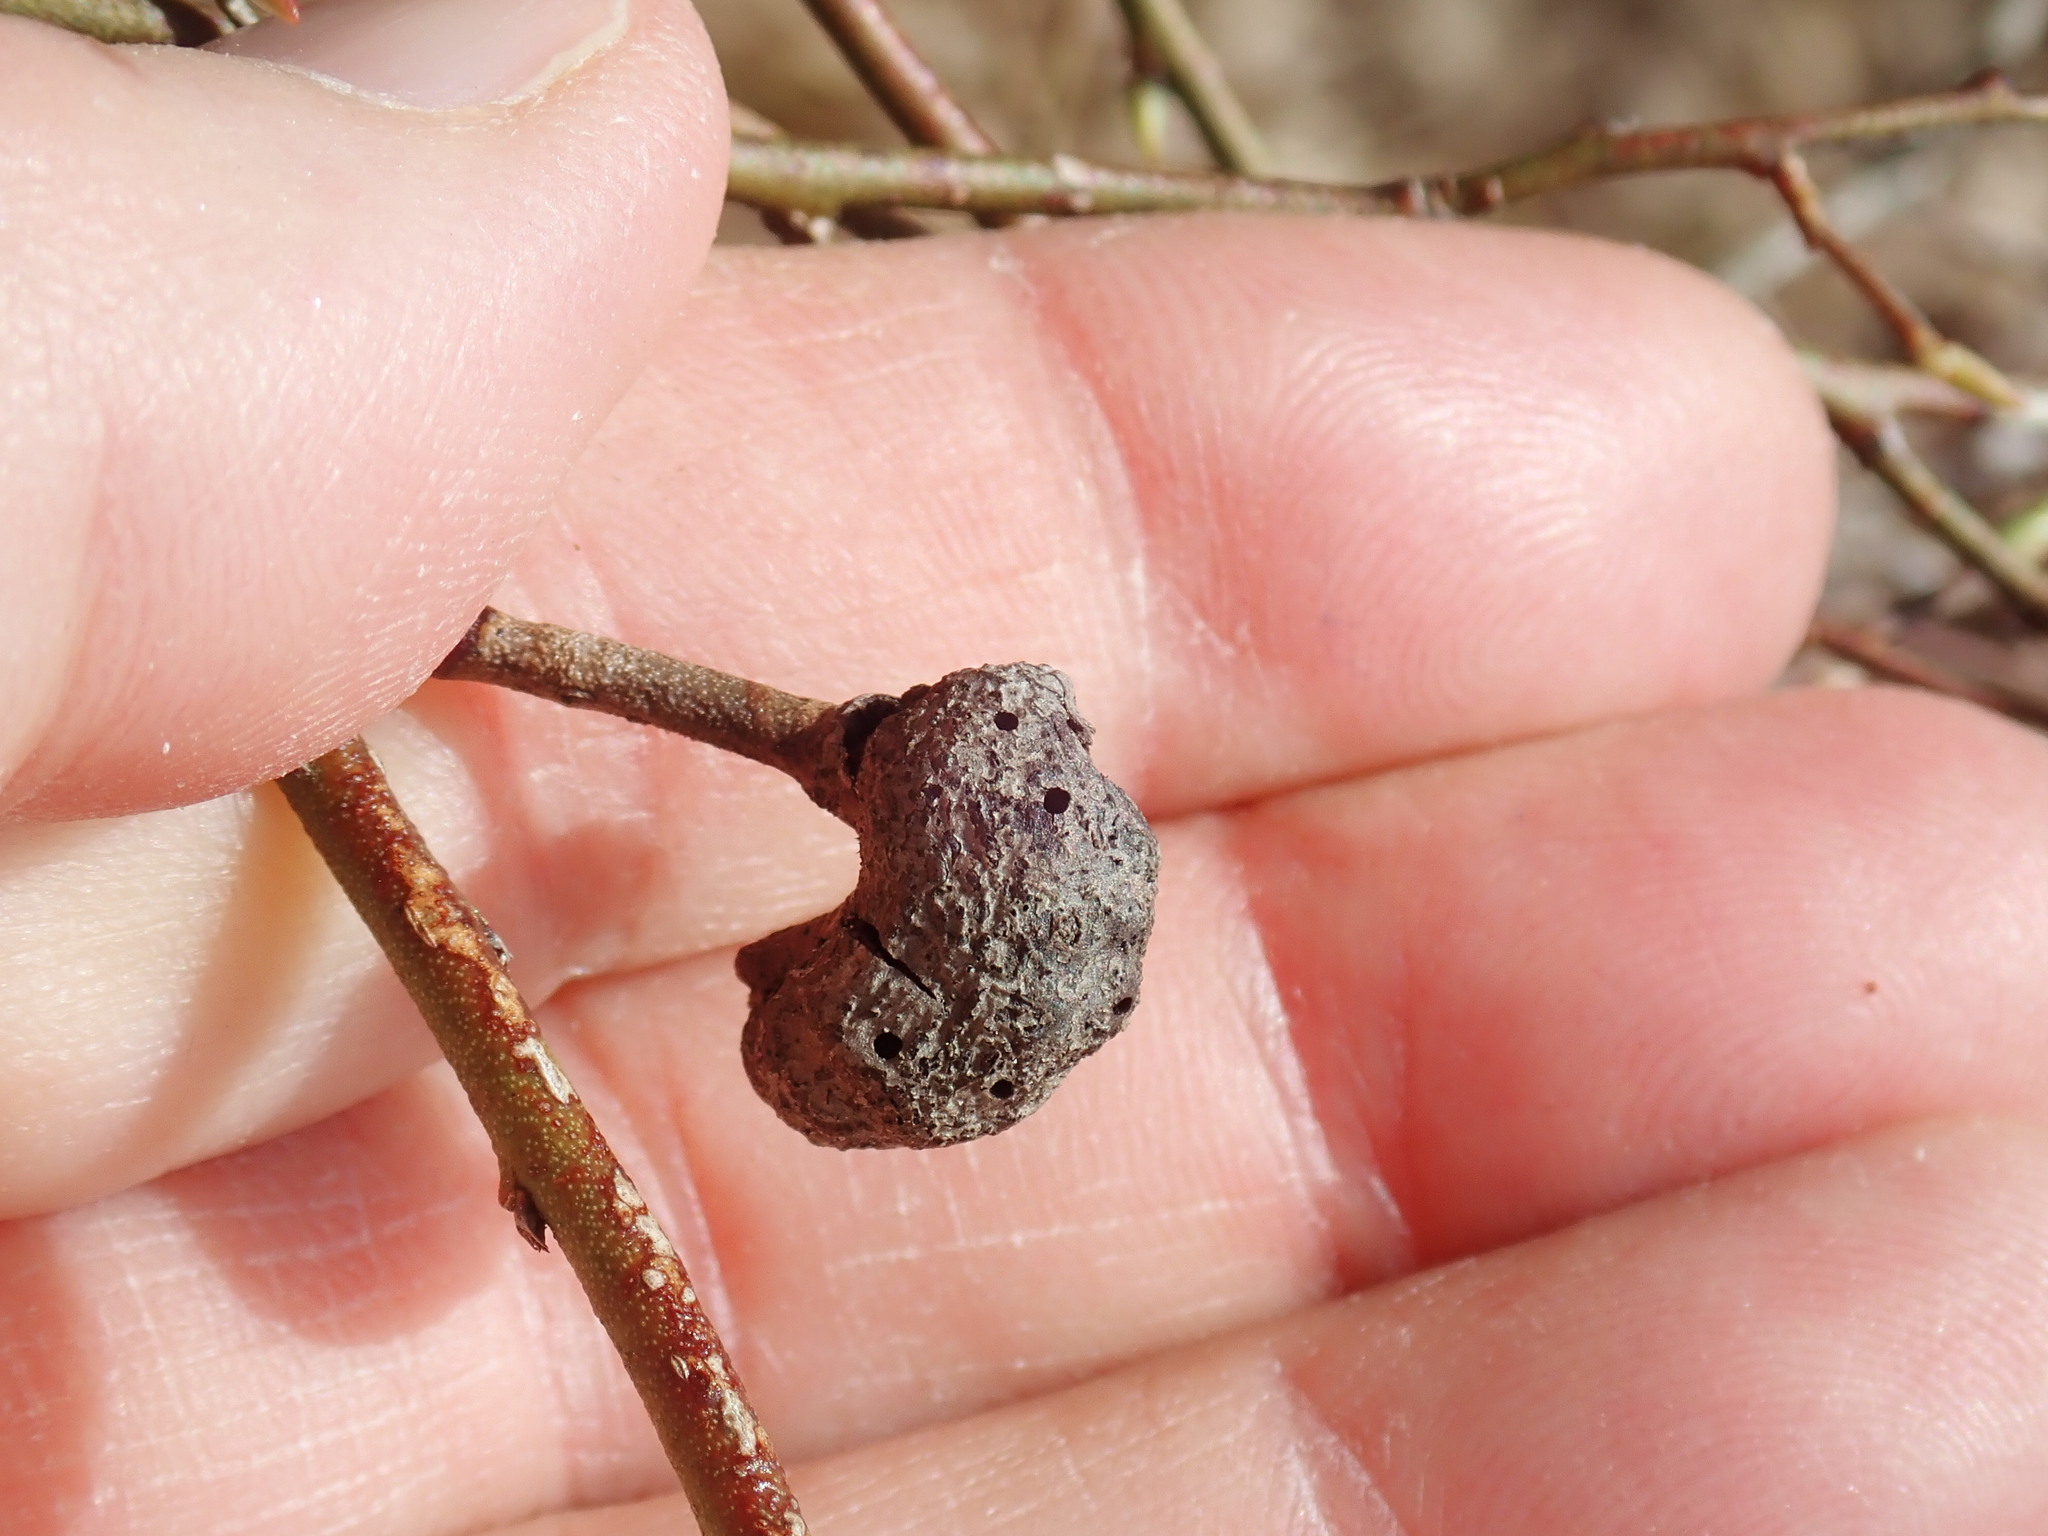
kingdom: Animalia
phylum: Arthropoda
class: Insecta
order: Hymenoptera
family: Pteromalidae
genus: Hemadas
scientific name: Hemadas nubilipennis
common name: Blueberry stem gall wasp
